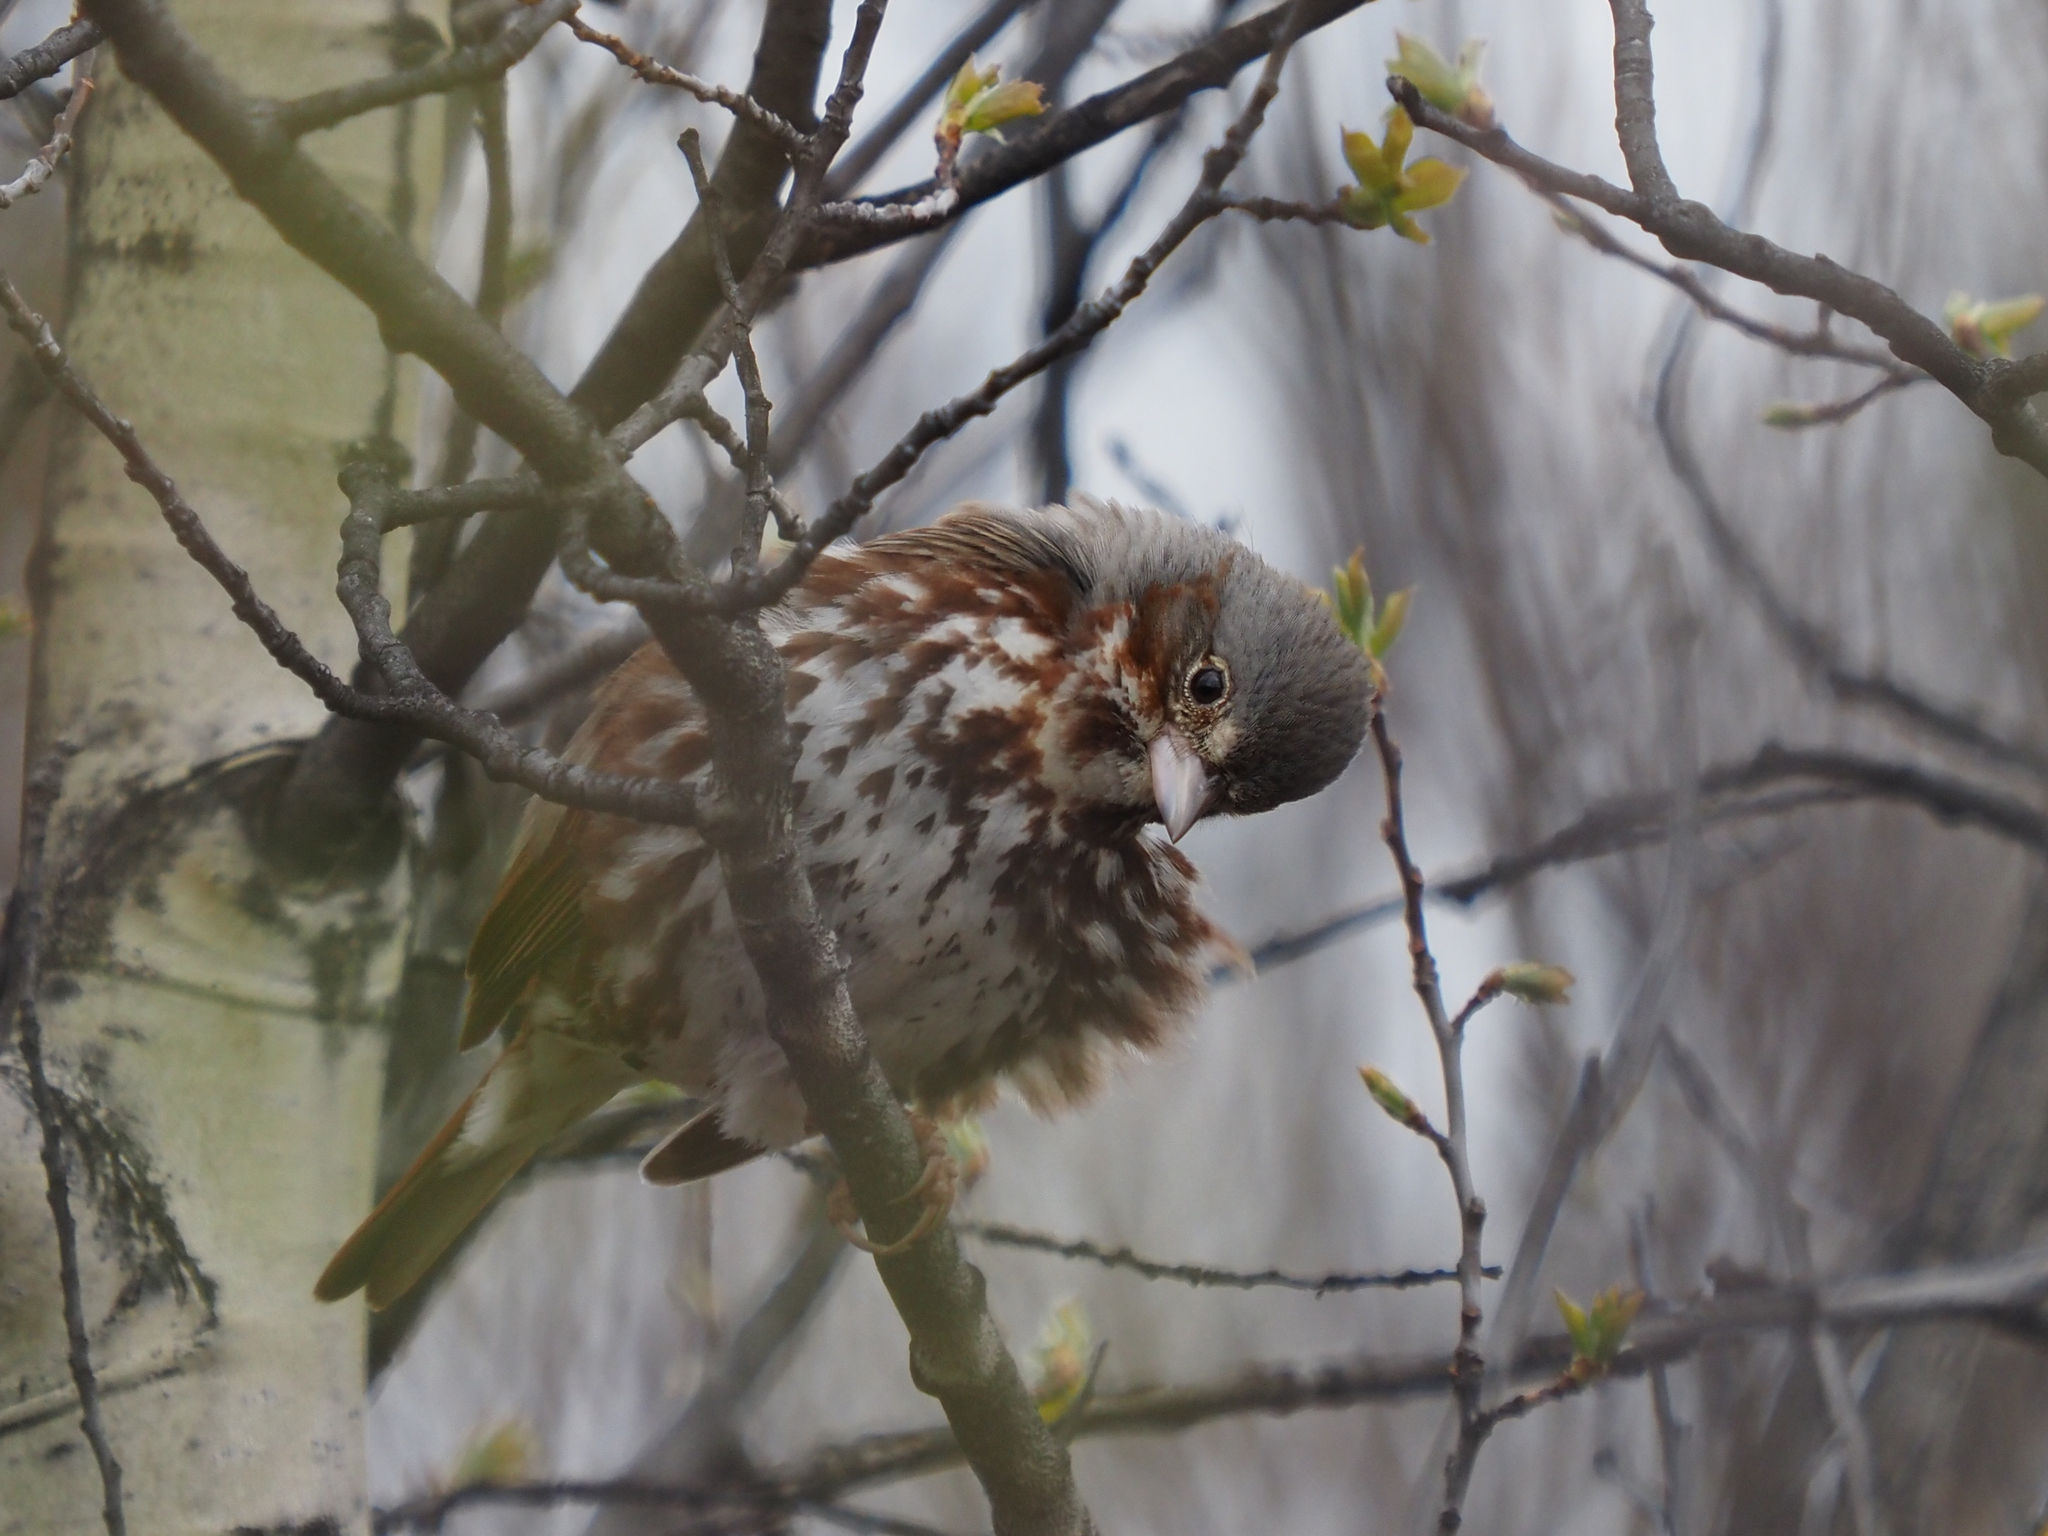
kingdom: Animalia
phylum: Chordata
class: Aves
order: Passeriformes
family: Passerellidae
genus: Passerella
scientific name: Passerella iliaca
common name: Fox sparrow
